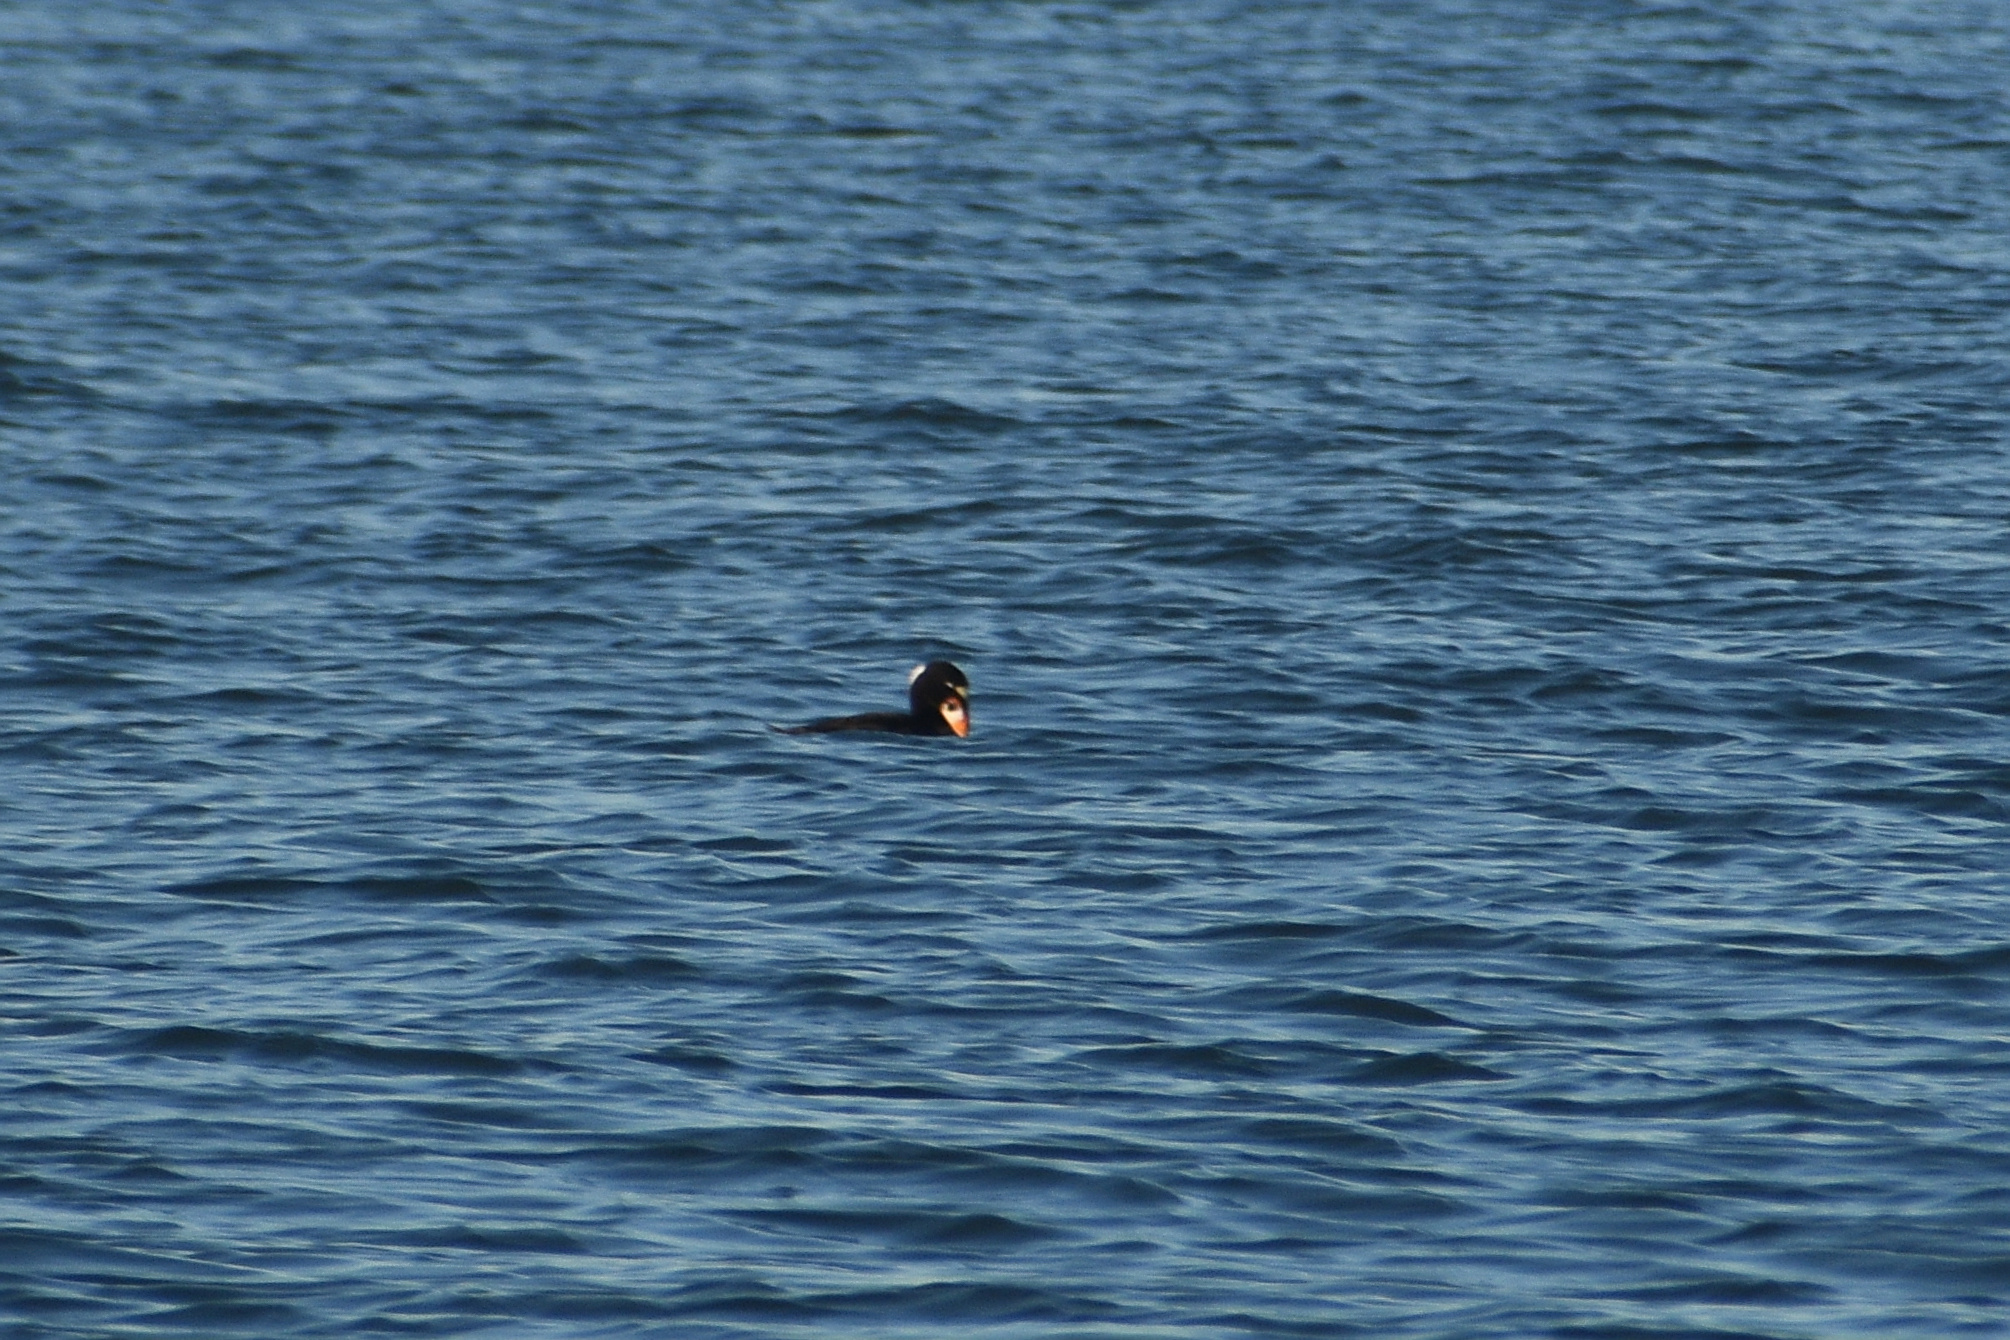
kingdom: Animalia
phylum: Chordata
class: Aves
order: Anseriformes
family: Anatidae
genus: Melanitta
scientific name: Melanitta perspicillata
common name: Surf scoter
